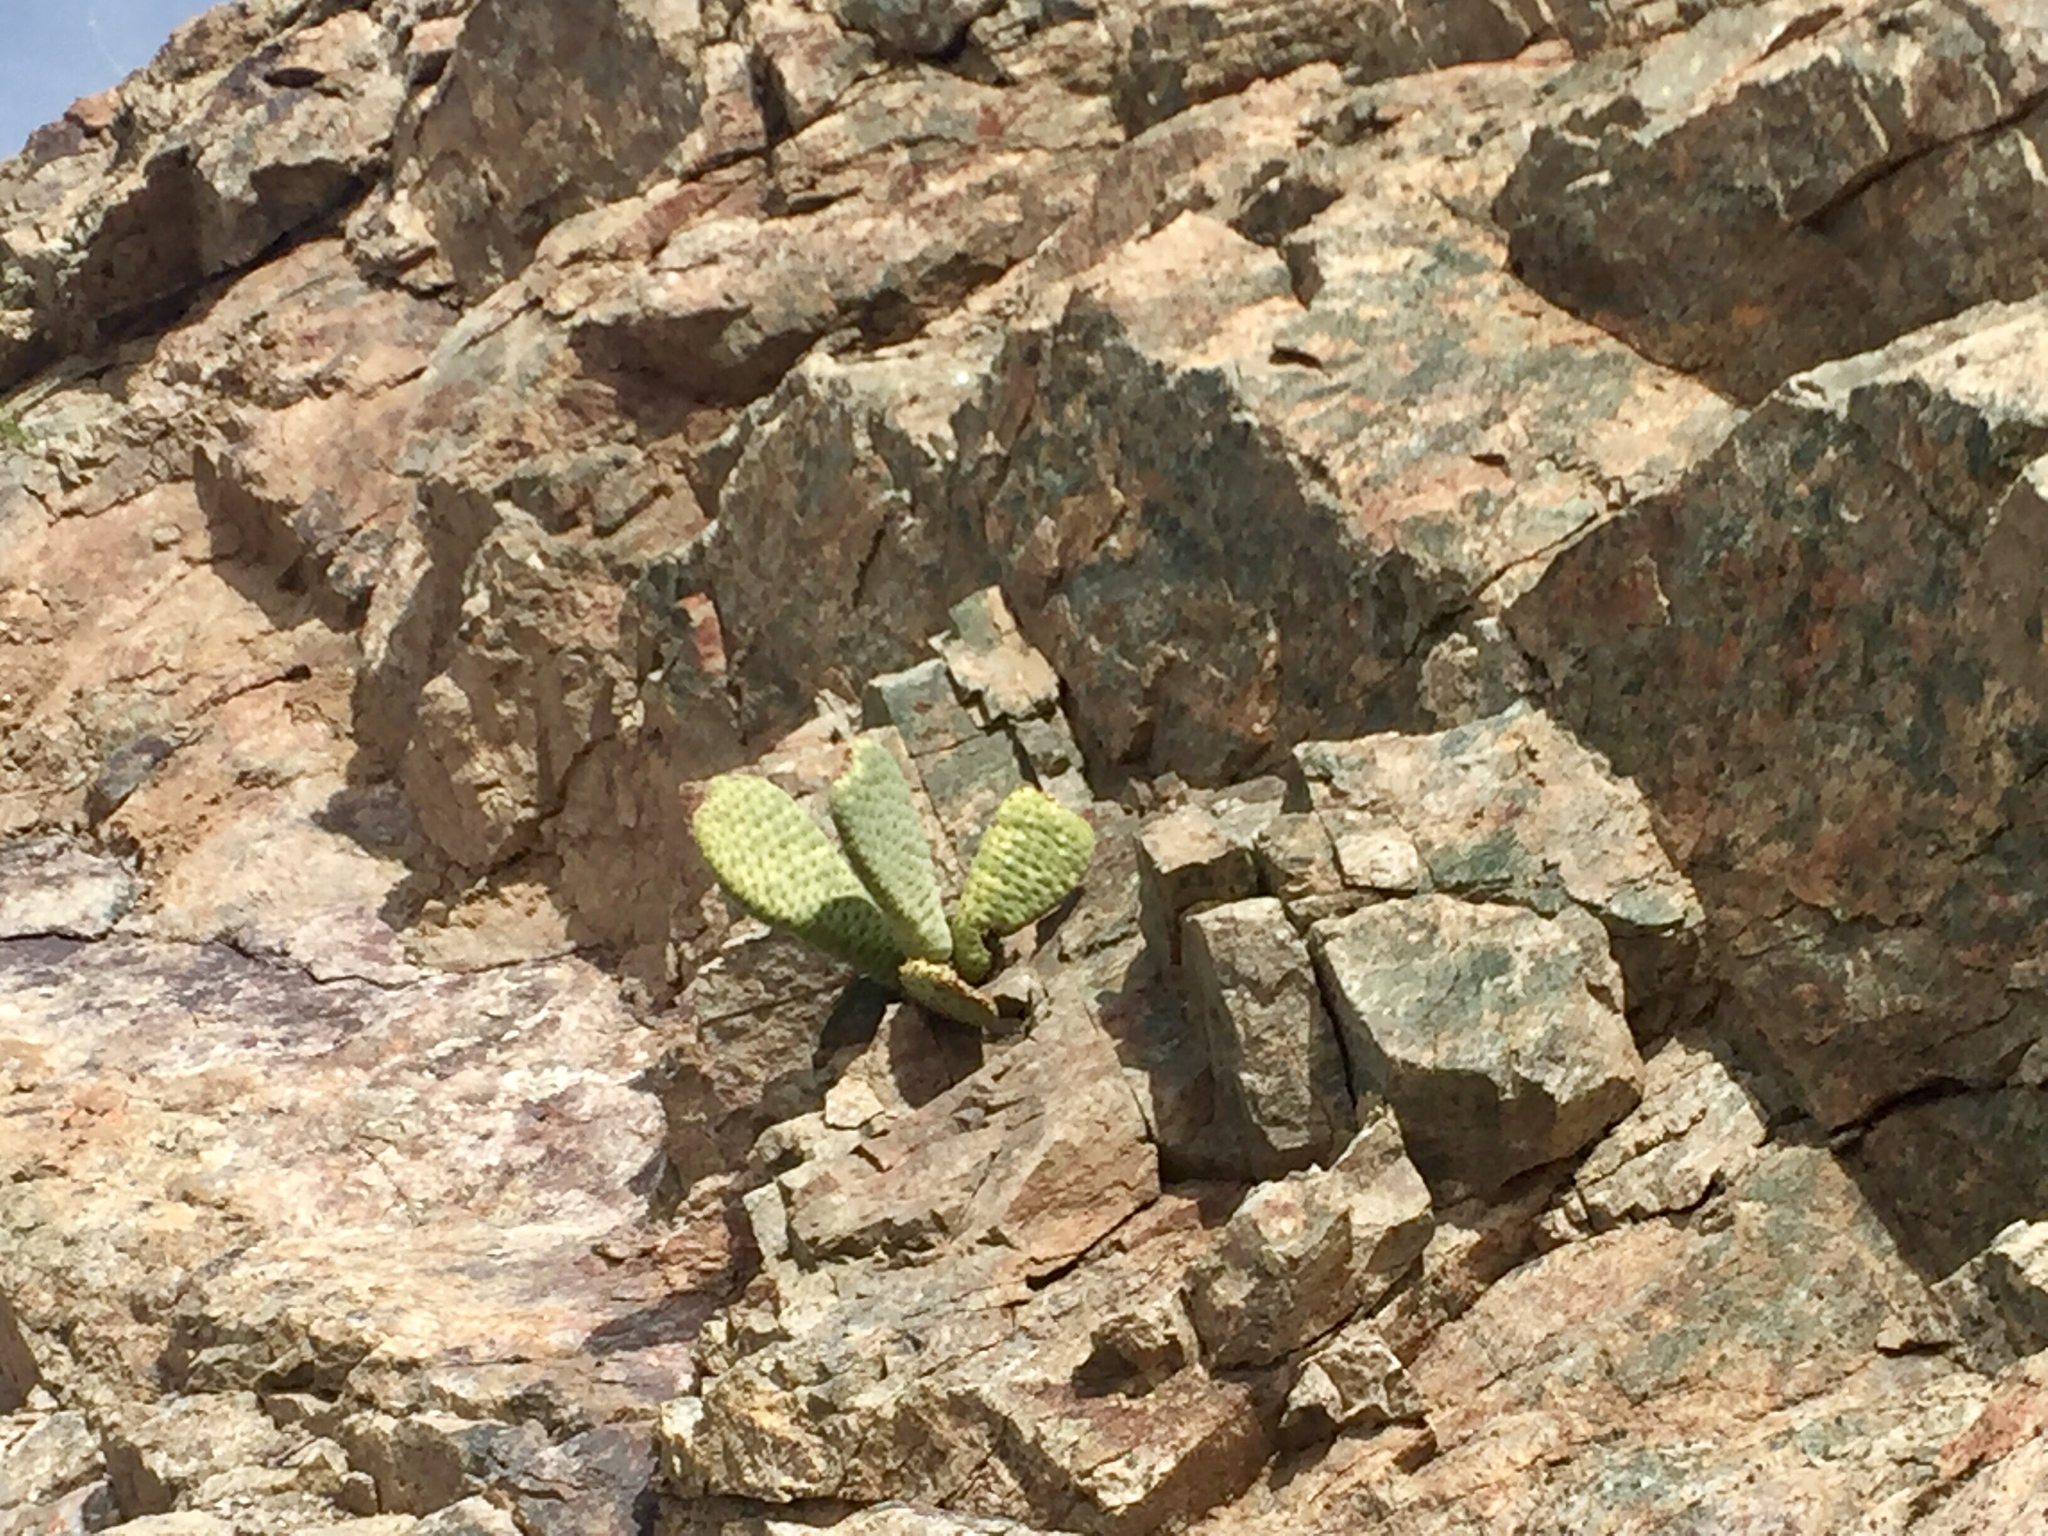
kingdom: Plantae
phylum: Tracheophyta
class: Magnoliopsida
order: Caryophyllales
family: Cactaceae
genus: Opuntia
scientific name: Opuntia basilaris
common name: Beavertail prickly-pear
